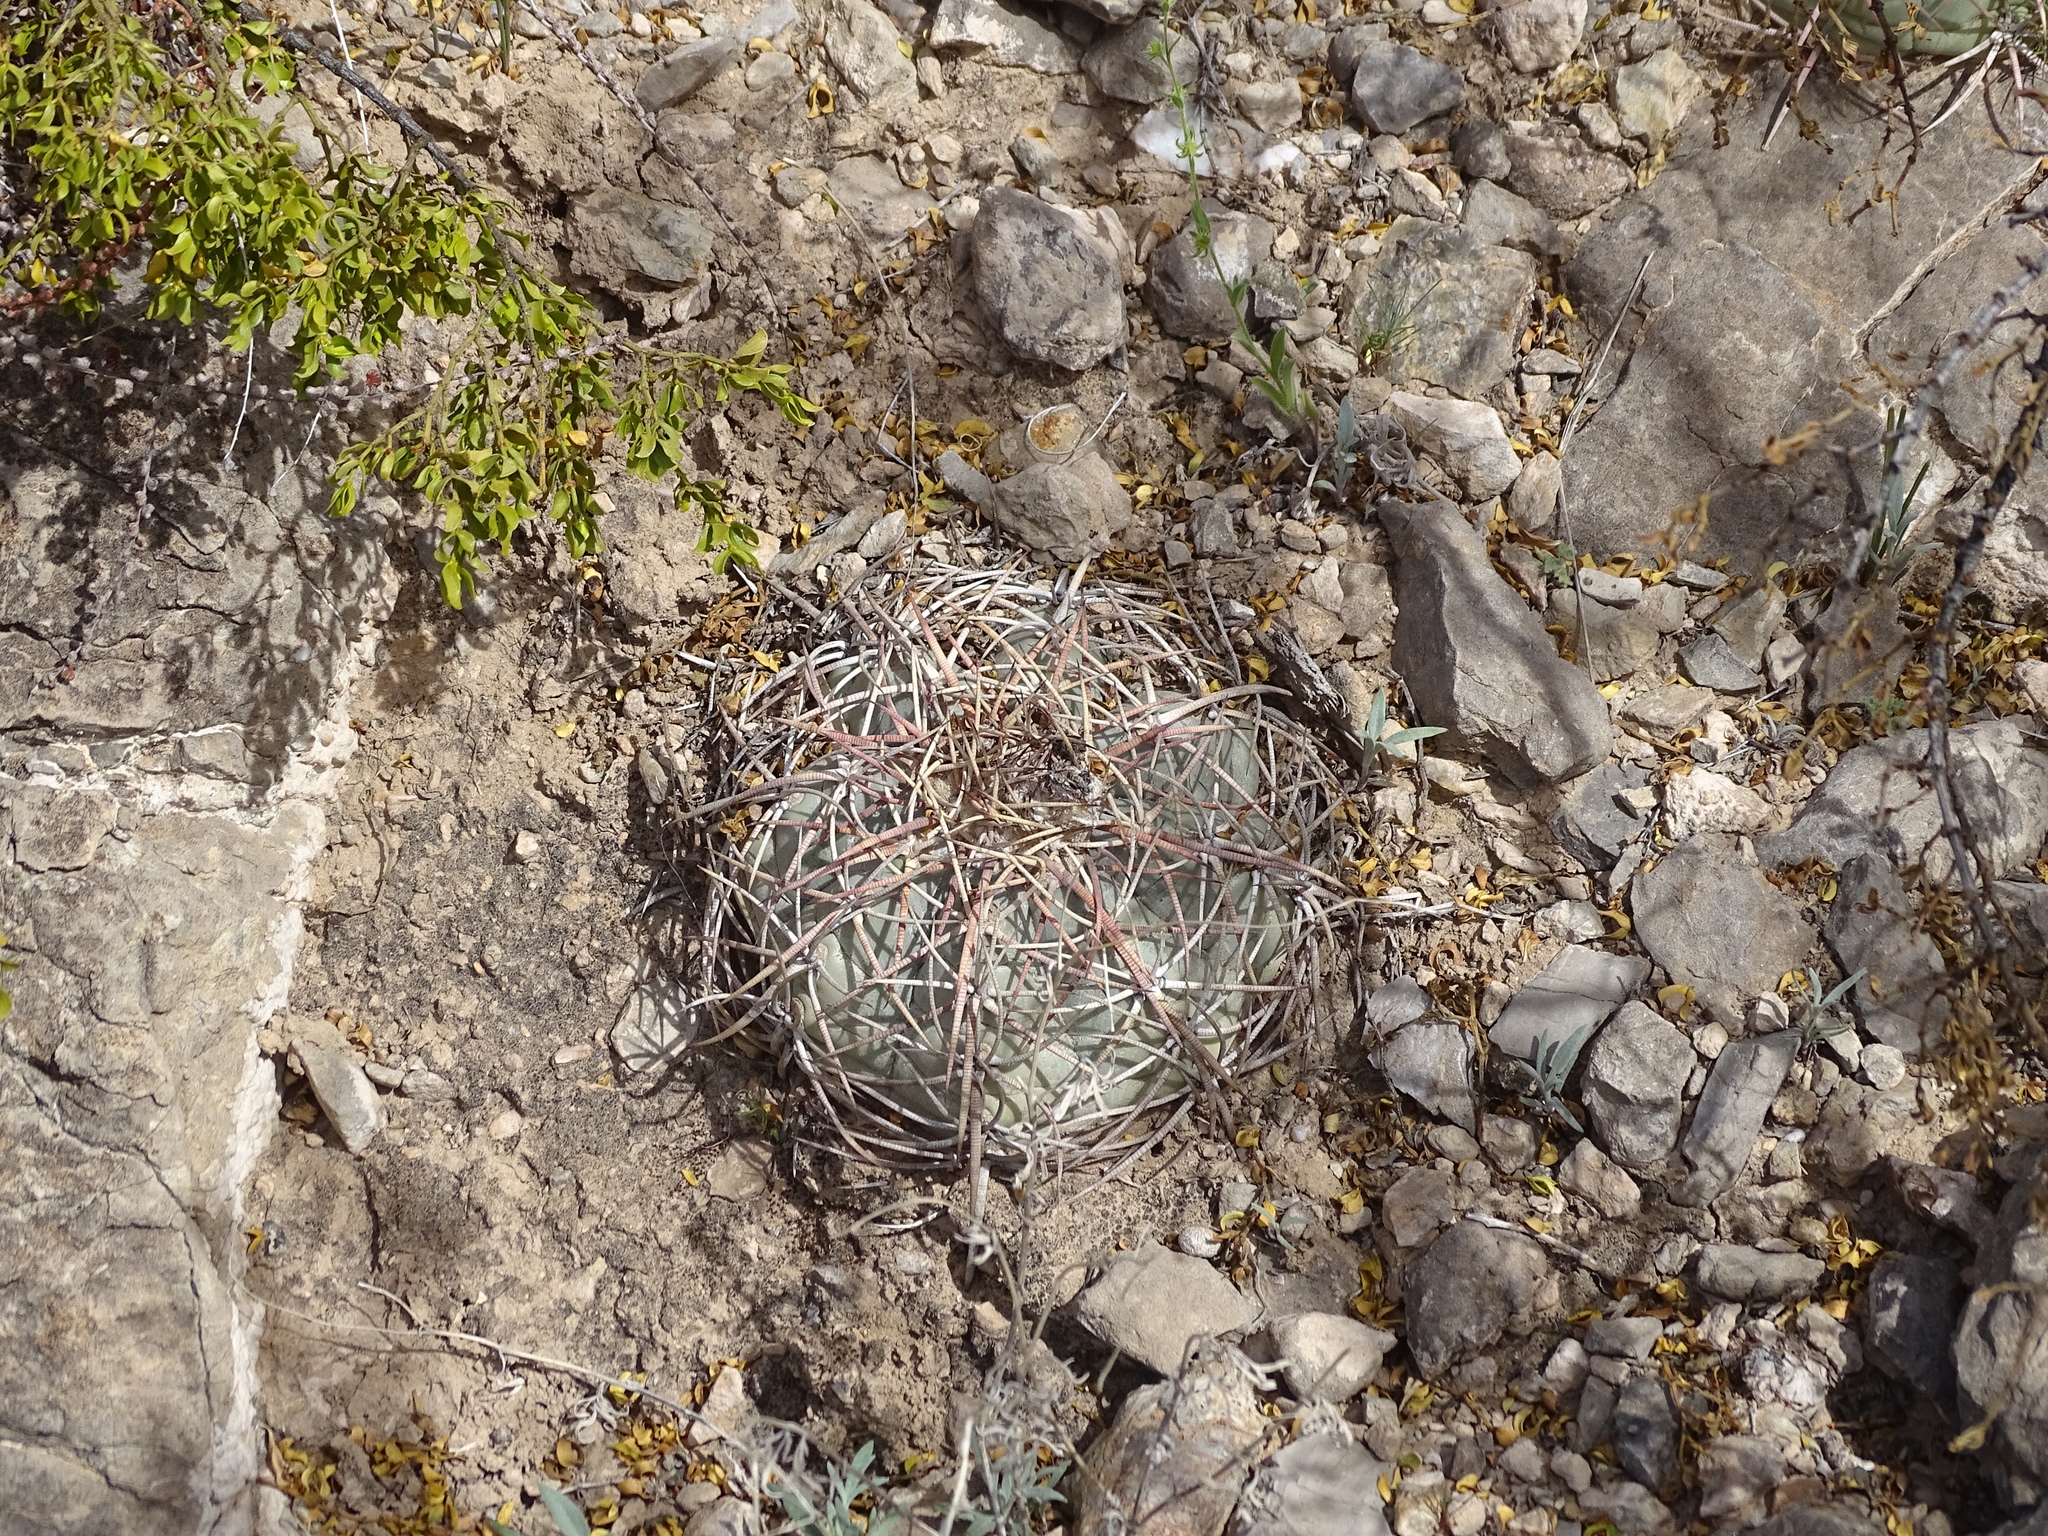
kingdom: Plantae
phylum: Tracheophyta
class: Magnoliopsida
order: Caryophyllales
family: Cactaceae
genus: Echinocactus
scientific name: Echinocactus horizonthalonius
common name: Devilshead
